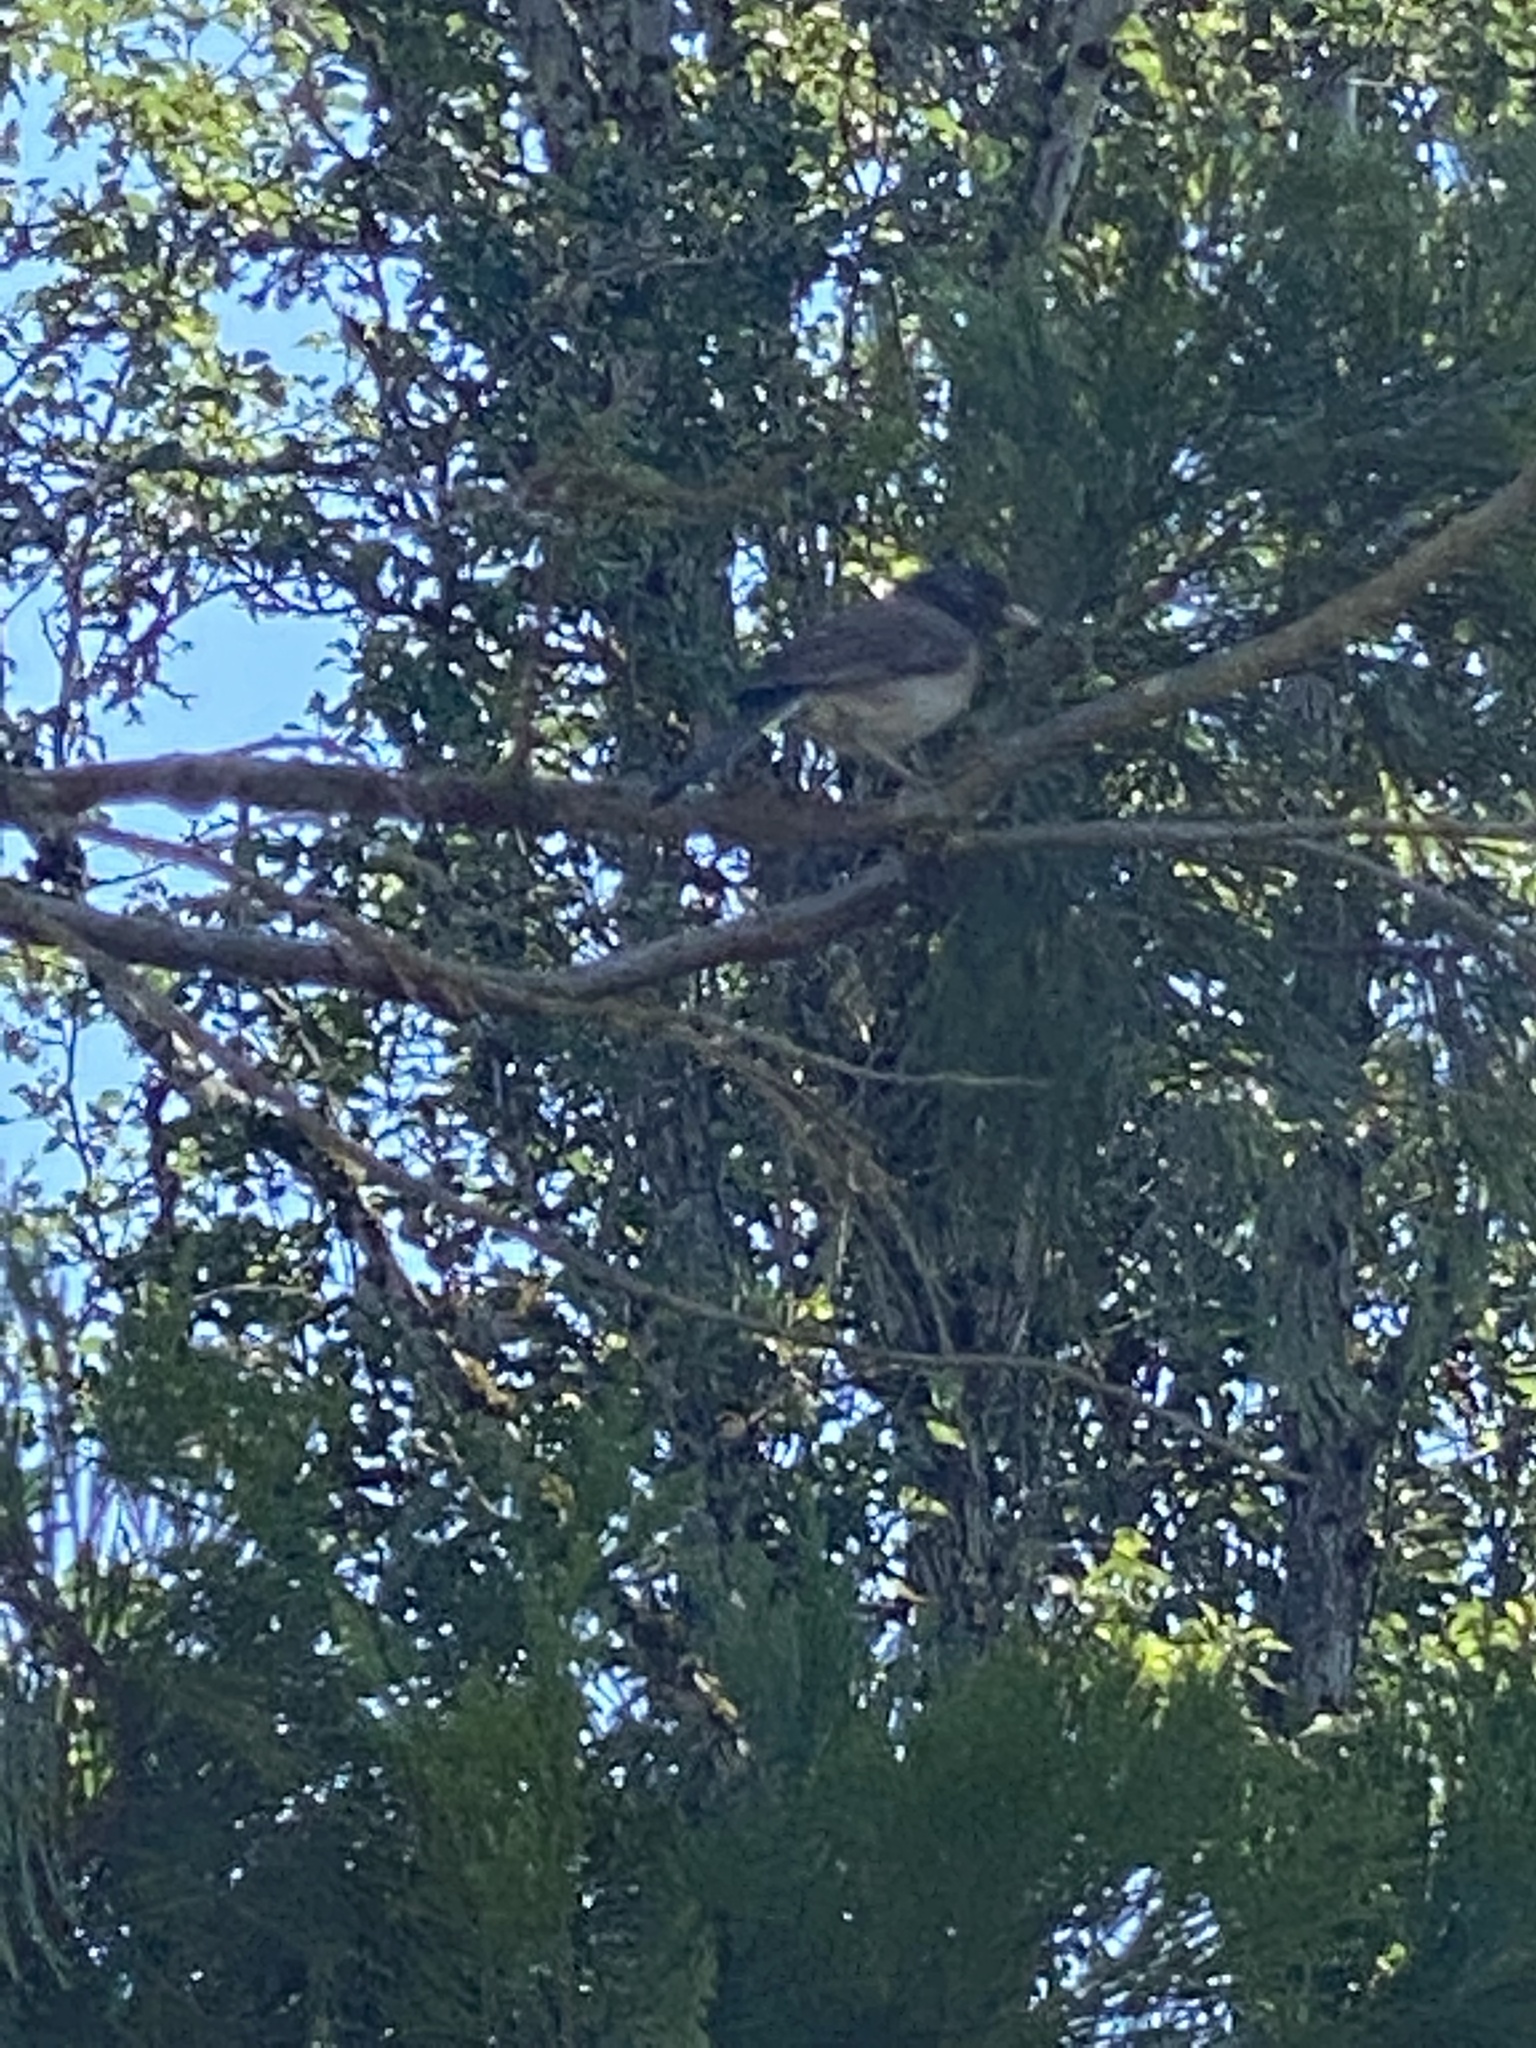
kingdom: Animalia
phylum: Chordata
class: Aves
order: Passeriformes
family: Passerellidae
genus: Junco
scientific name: Junco hyemalis
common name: Dark-eyed junco
